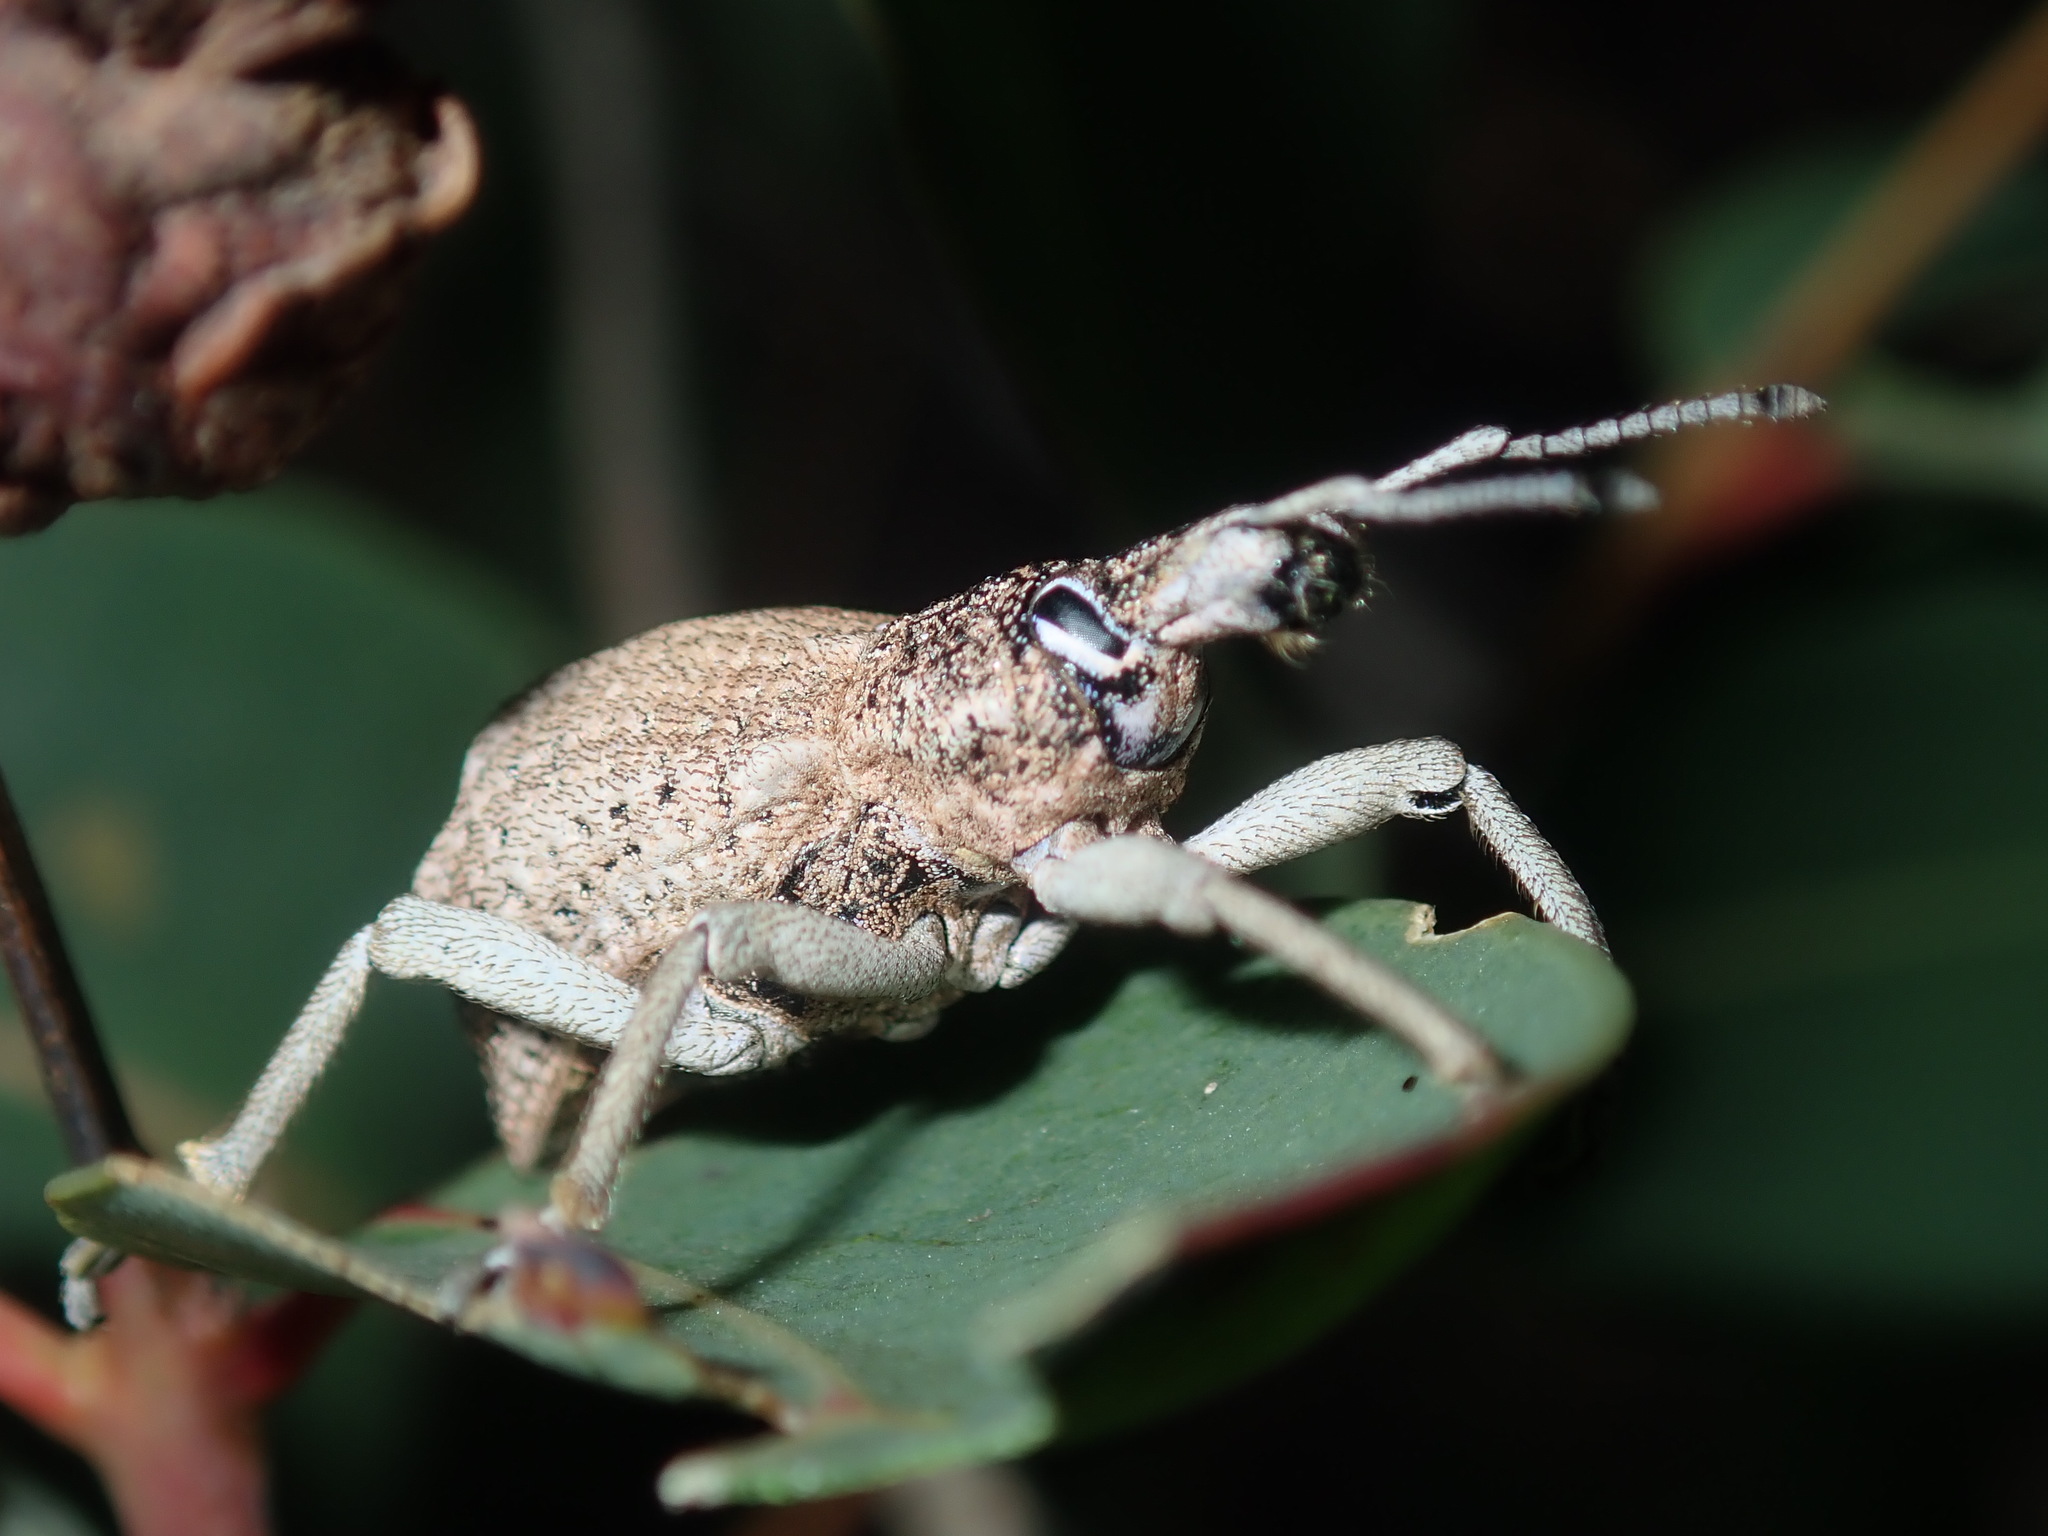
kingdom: Animalia
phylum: Arthropoda
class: Insecta
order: Coleoptera
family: Curculionidae
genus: Leptopius
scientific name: Leptopius robustus
